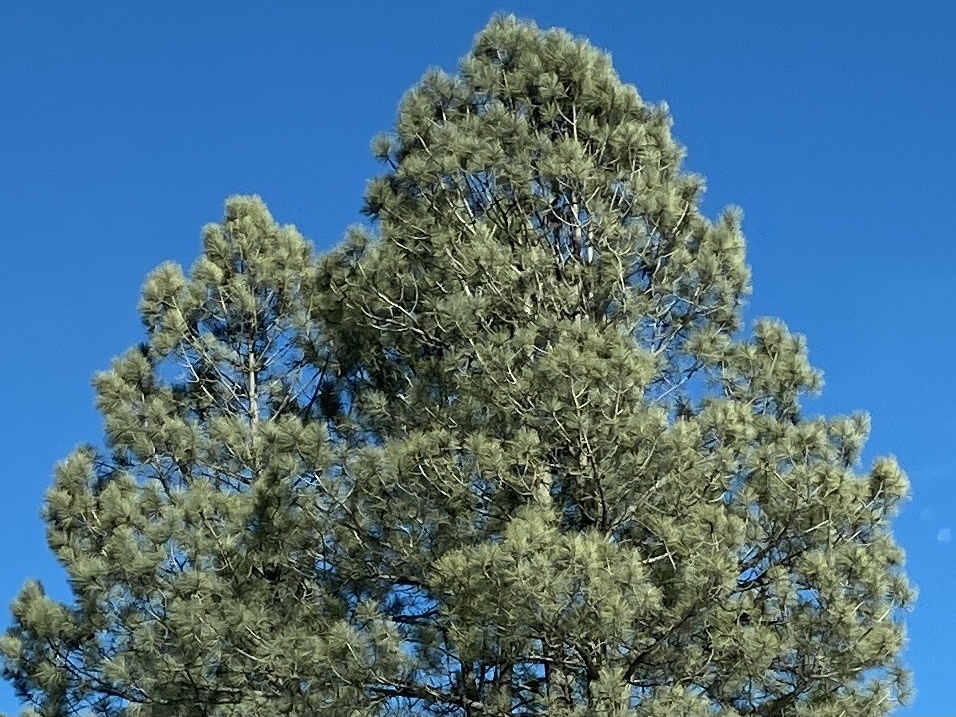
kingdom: Plantae
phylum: Tracheophyta
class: Pinopsida
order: Pinales
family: Pinaceae
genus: Pinus
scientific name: Pinus ponderosa
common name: Western yellow-pine
